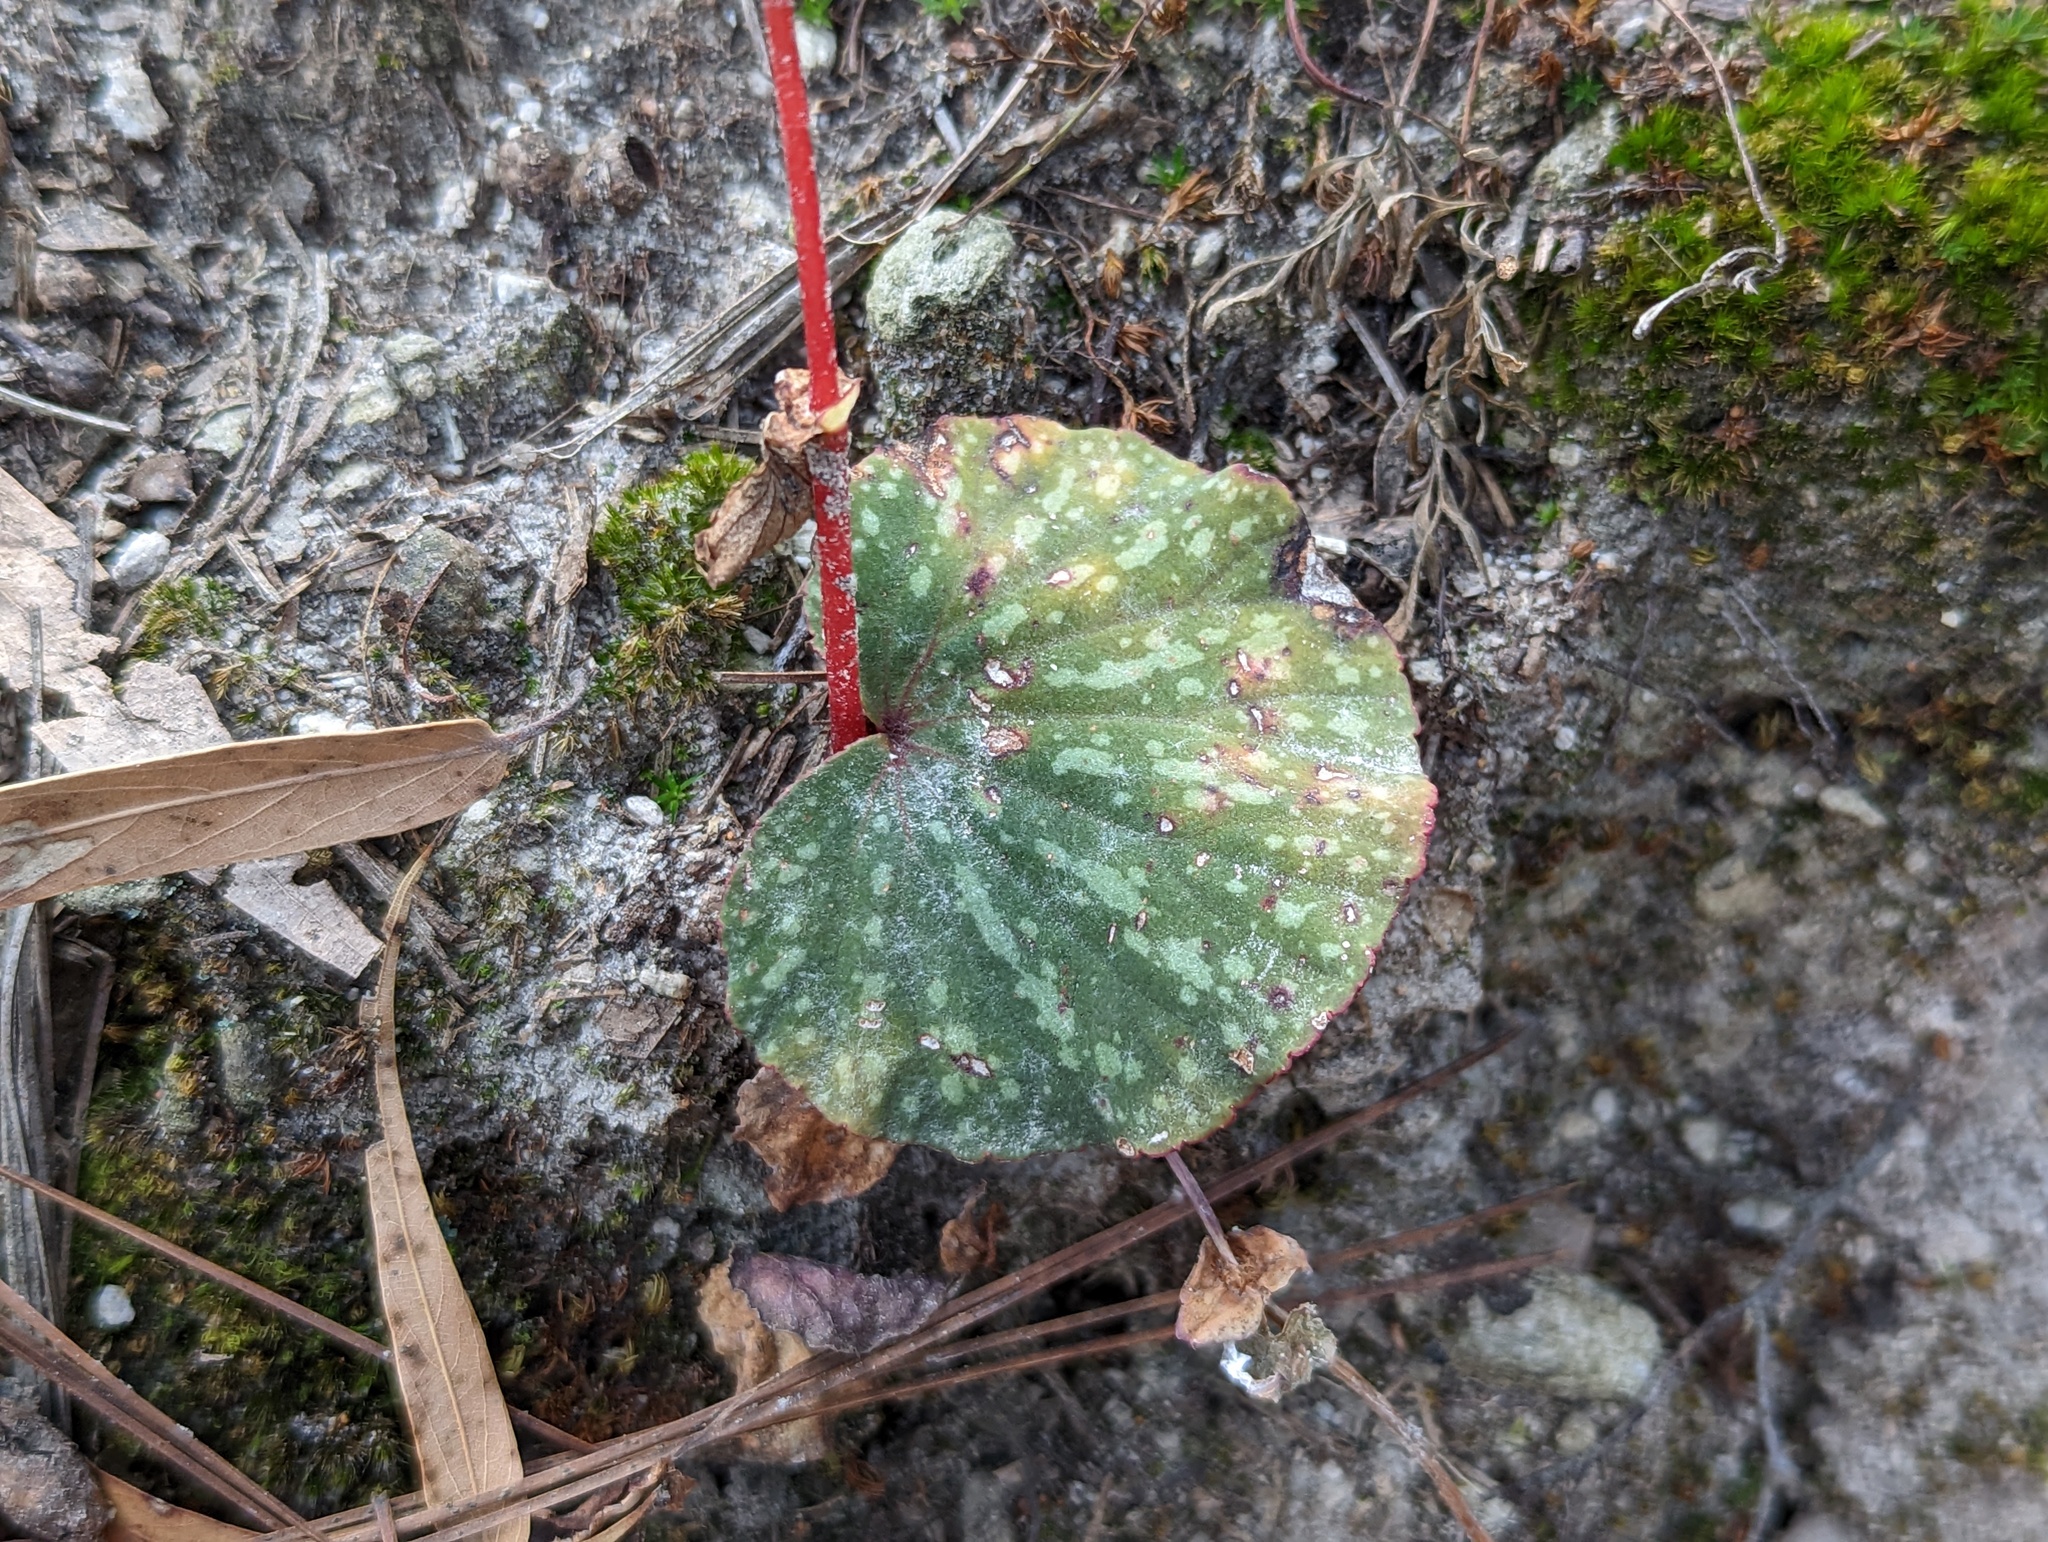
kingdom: Plantae
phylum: Tracheophyta
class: Magnoliopsida
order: Cucurbitales
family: Begoniaceae
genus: Begonia
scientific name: Begonia tapatia
